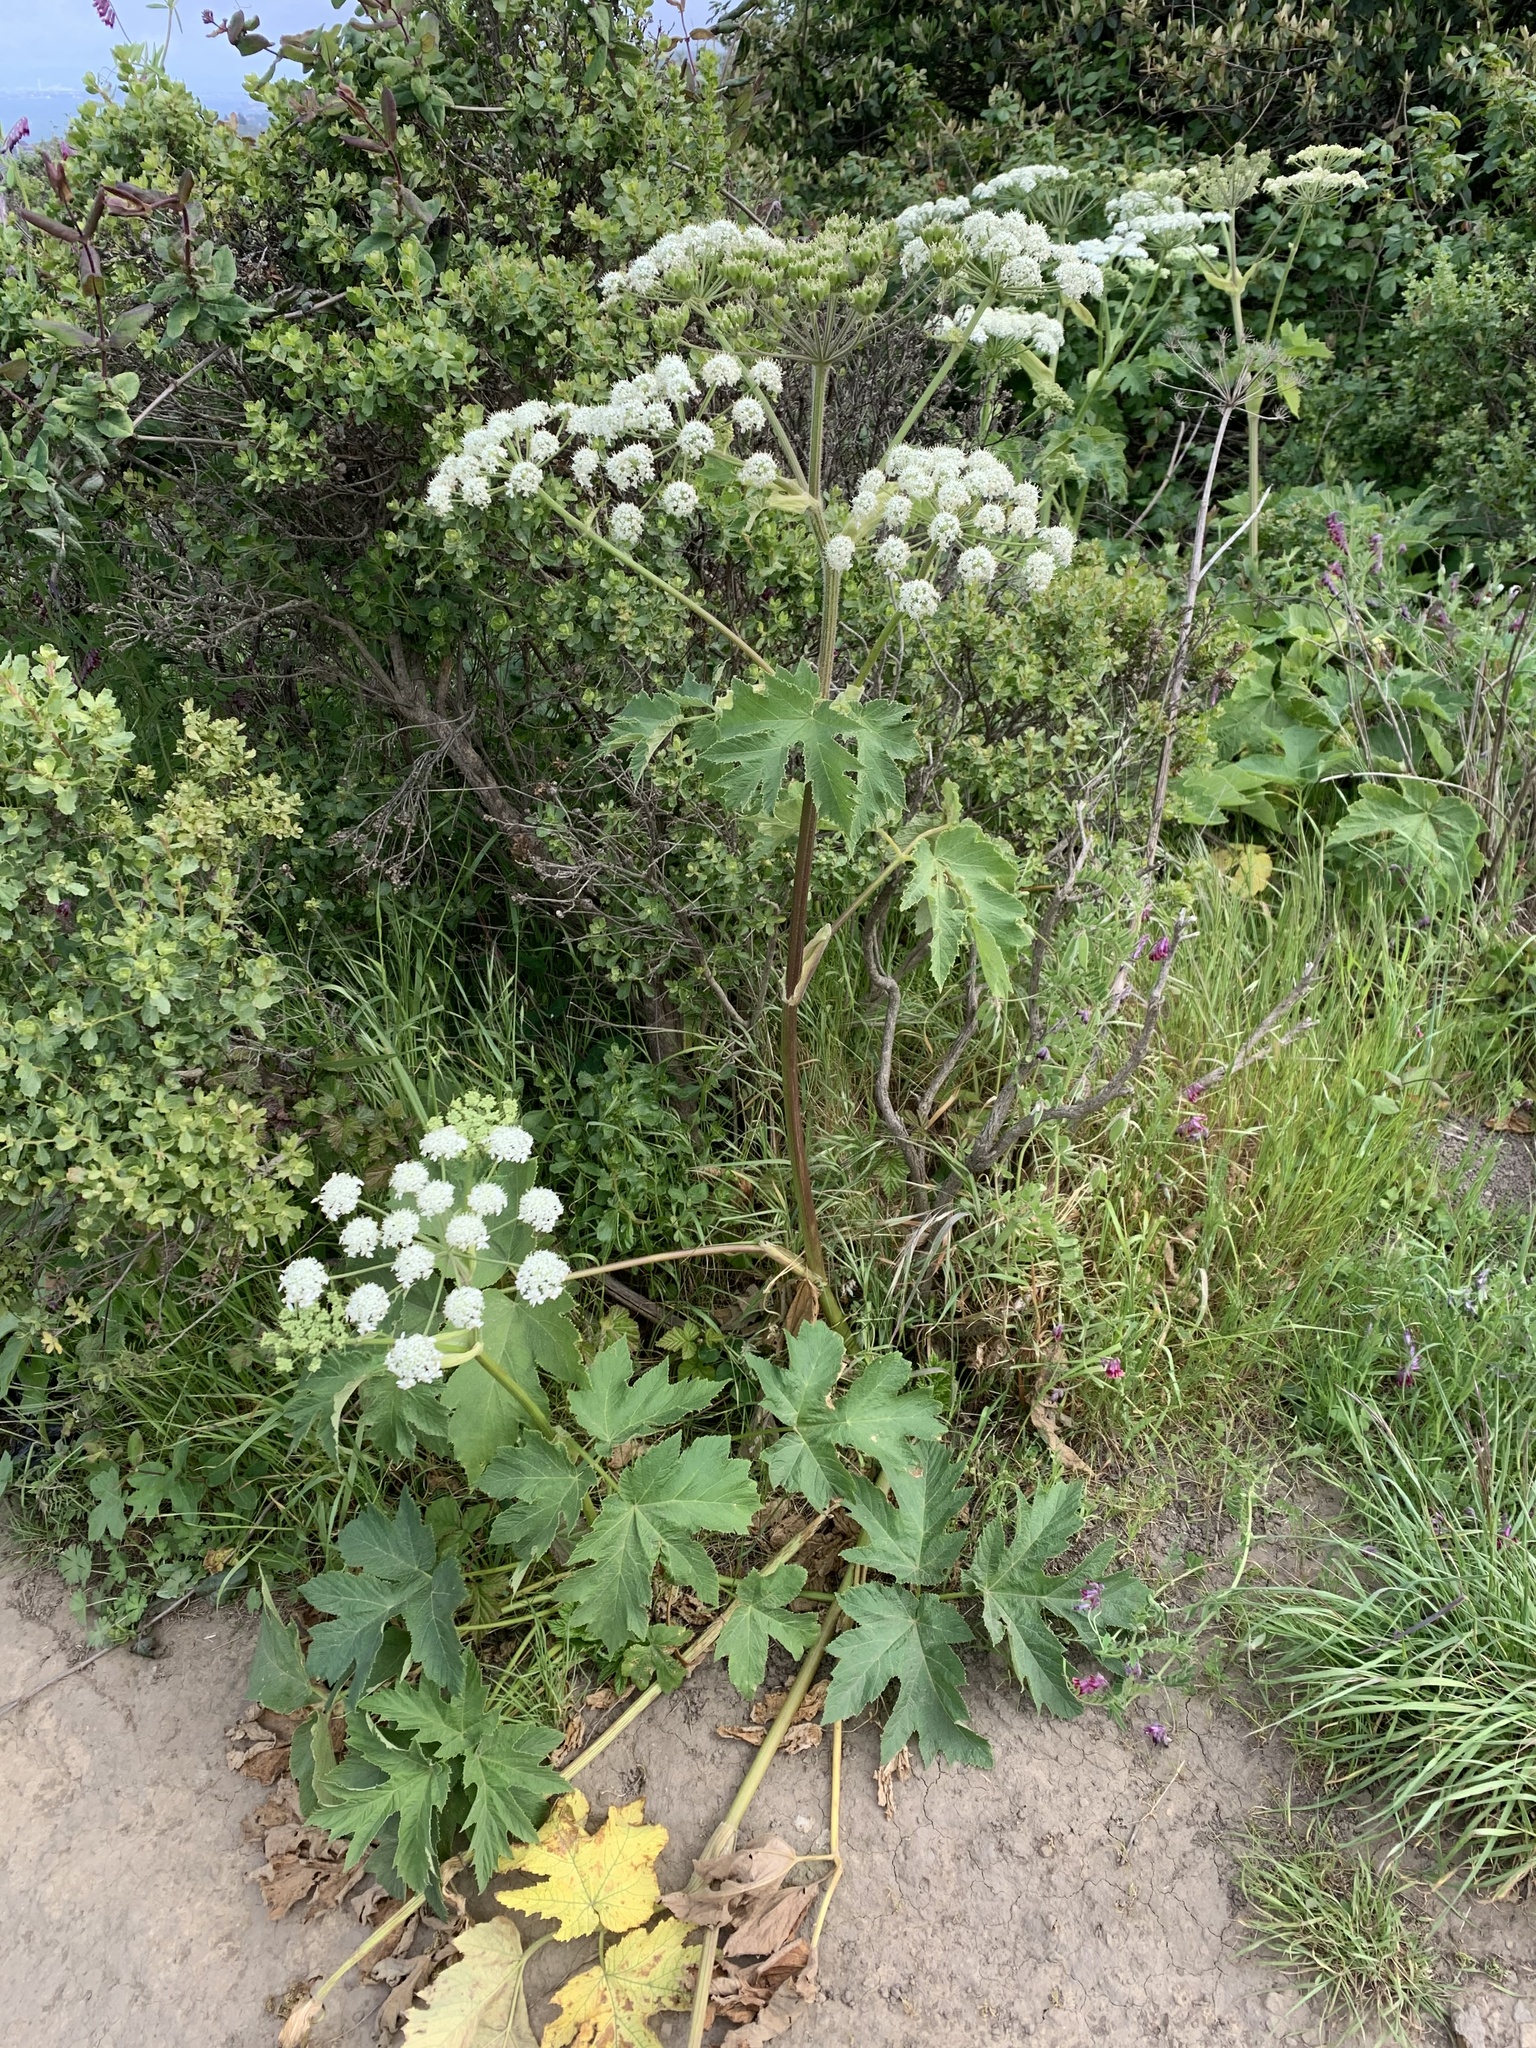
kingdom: Plantae
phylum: Tracheophyta
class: Magnoliopsida
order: Apiales
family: Apiaceae
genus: Heracleum
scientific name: Heracleum maximum
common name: American cow parsnip
